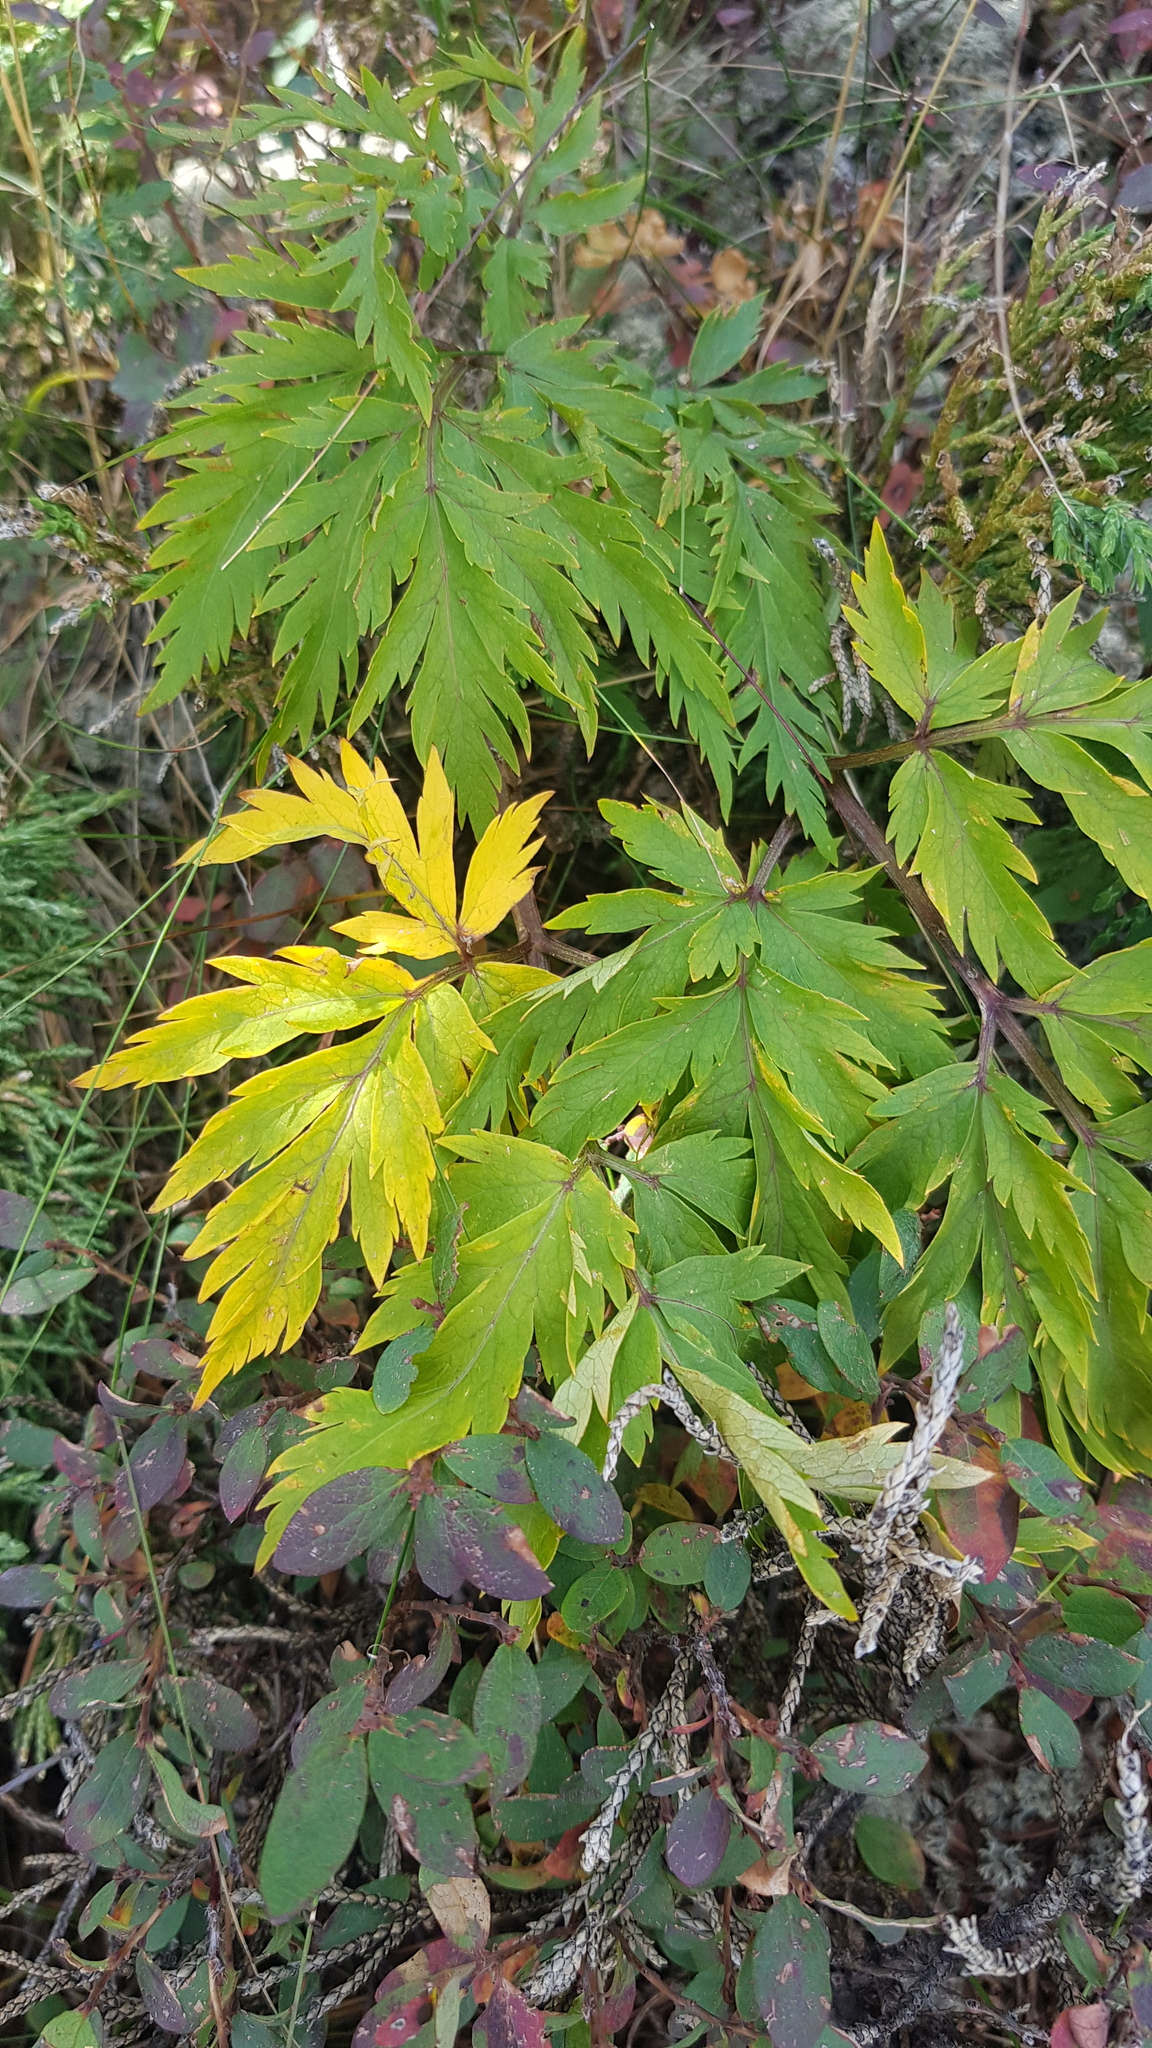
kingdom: Plantae
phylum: Tracheophyta
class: Magnoliopsida
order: Apiales
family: Apiaceae
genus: Pleurospermum
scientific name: Pleurospermum uralense
